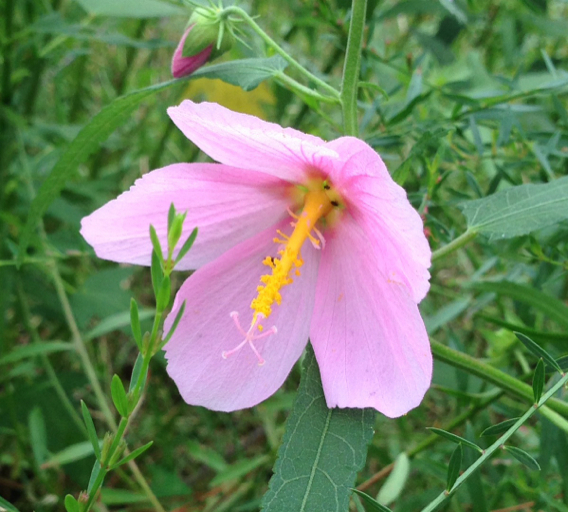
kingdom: Plantae
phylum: Tracheophyta
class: Magnoliopsida
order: Malvales
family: Malvaceae
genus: Kosteletzkya
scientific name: Kosteletzkya pentacarpos
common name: Virginia saltmarsh mallow
